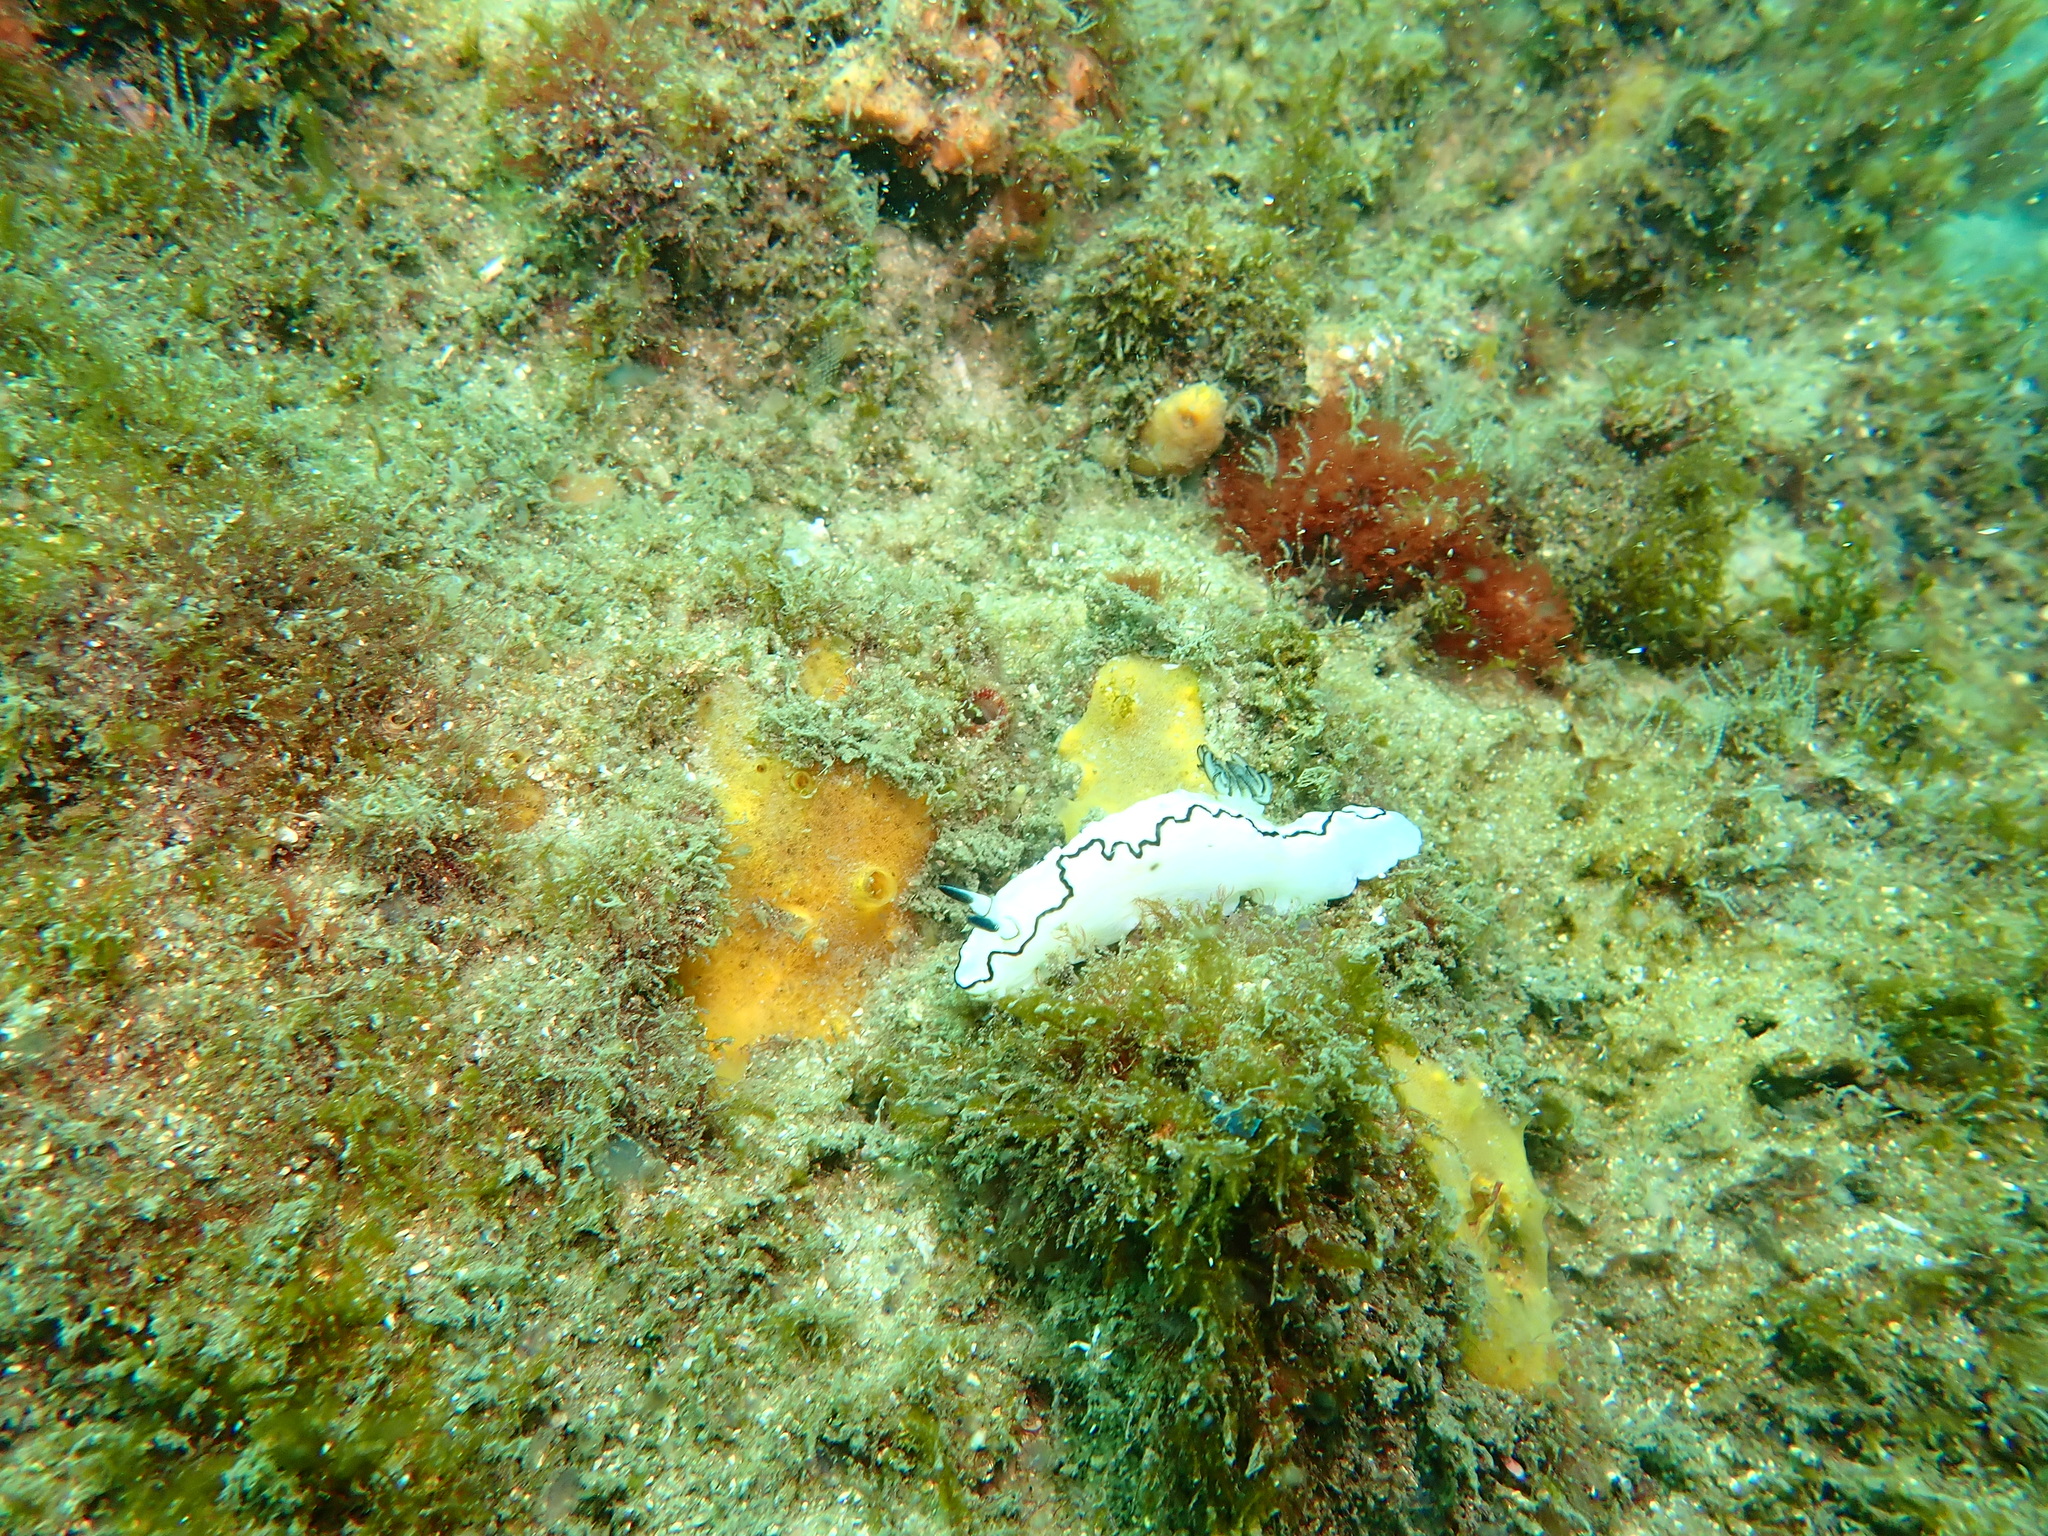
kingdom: Animalia
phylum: Mollusca
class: Gastropoda
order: Nudibranchia
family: Chromodorididae
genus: Doriprismatica
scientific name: Doriprismatica atromarginata
